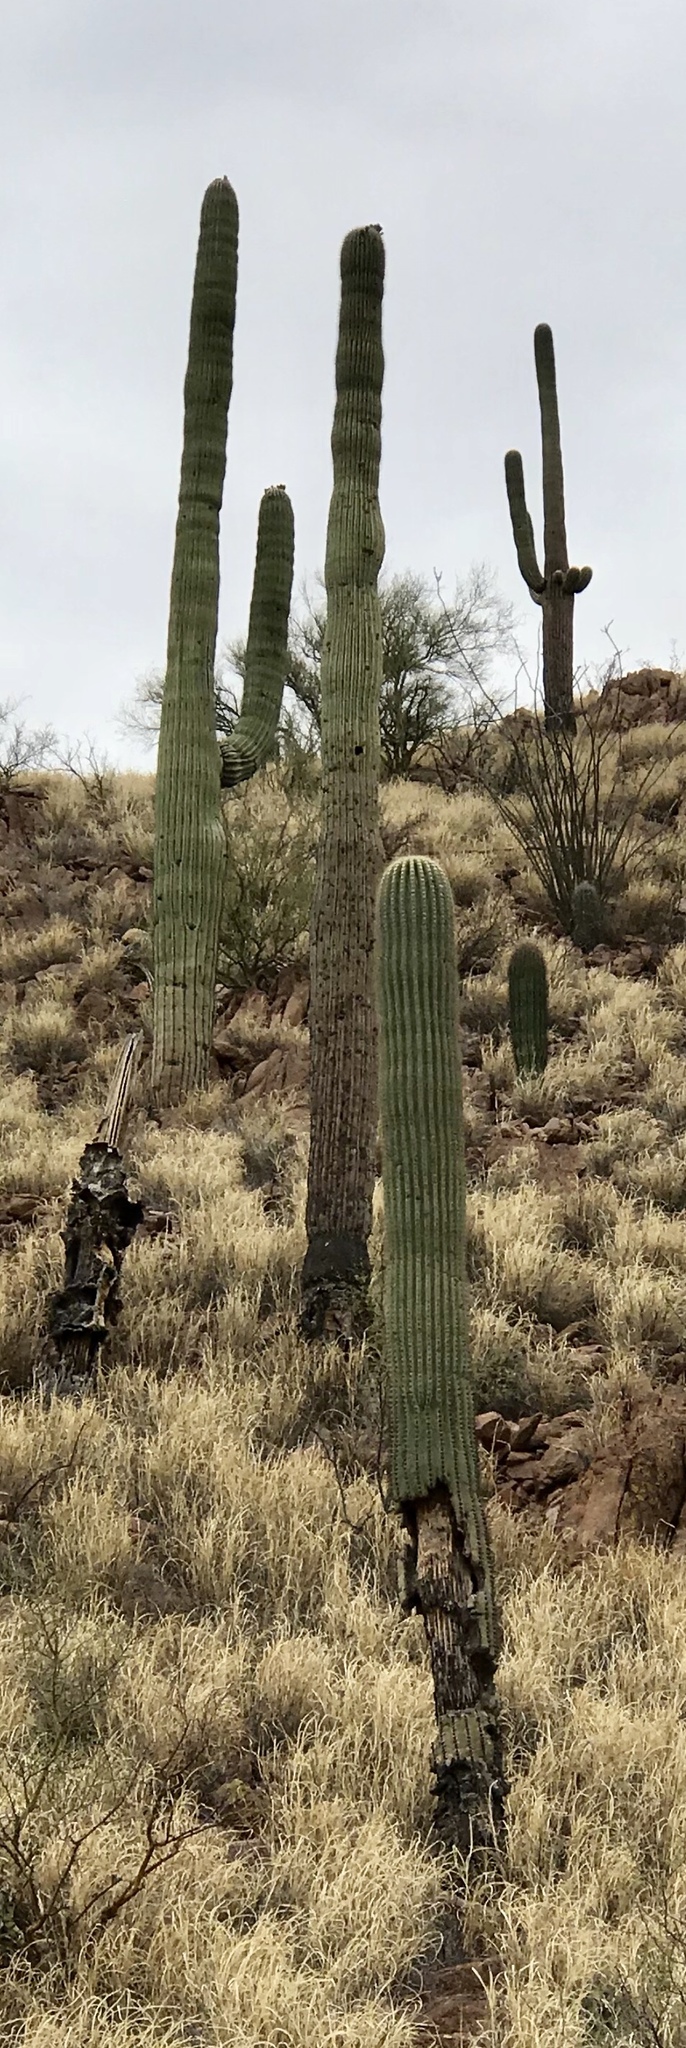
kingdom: Plantae
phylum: Tracheophyta
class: Magnoliopsida
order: Caryophyllales
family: Cactaceae
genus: Carnegiea
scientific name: Carnegiea gigantea
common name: Saguaro
